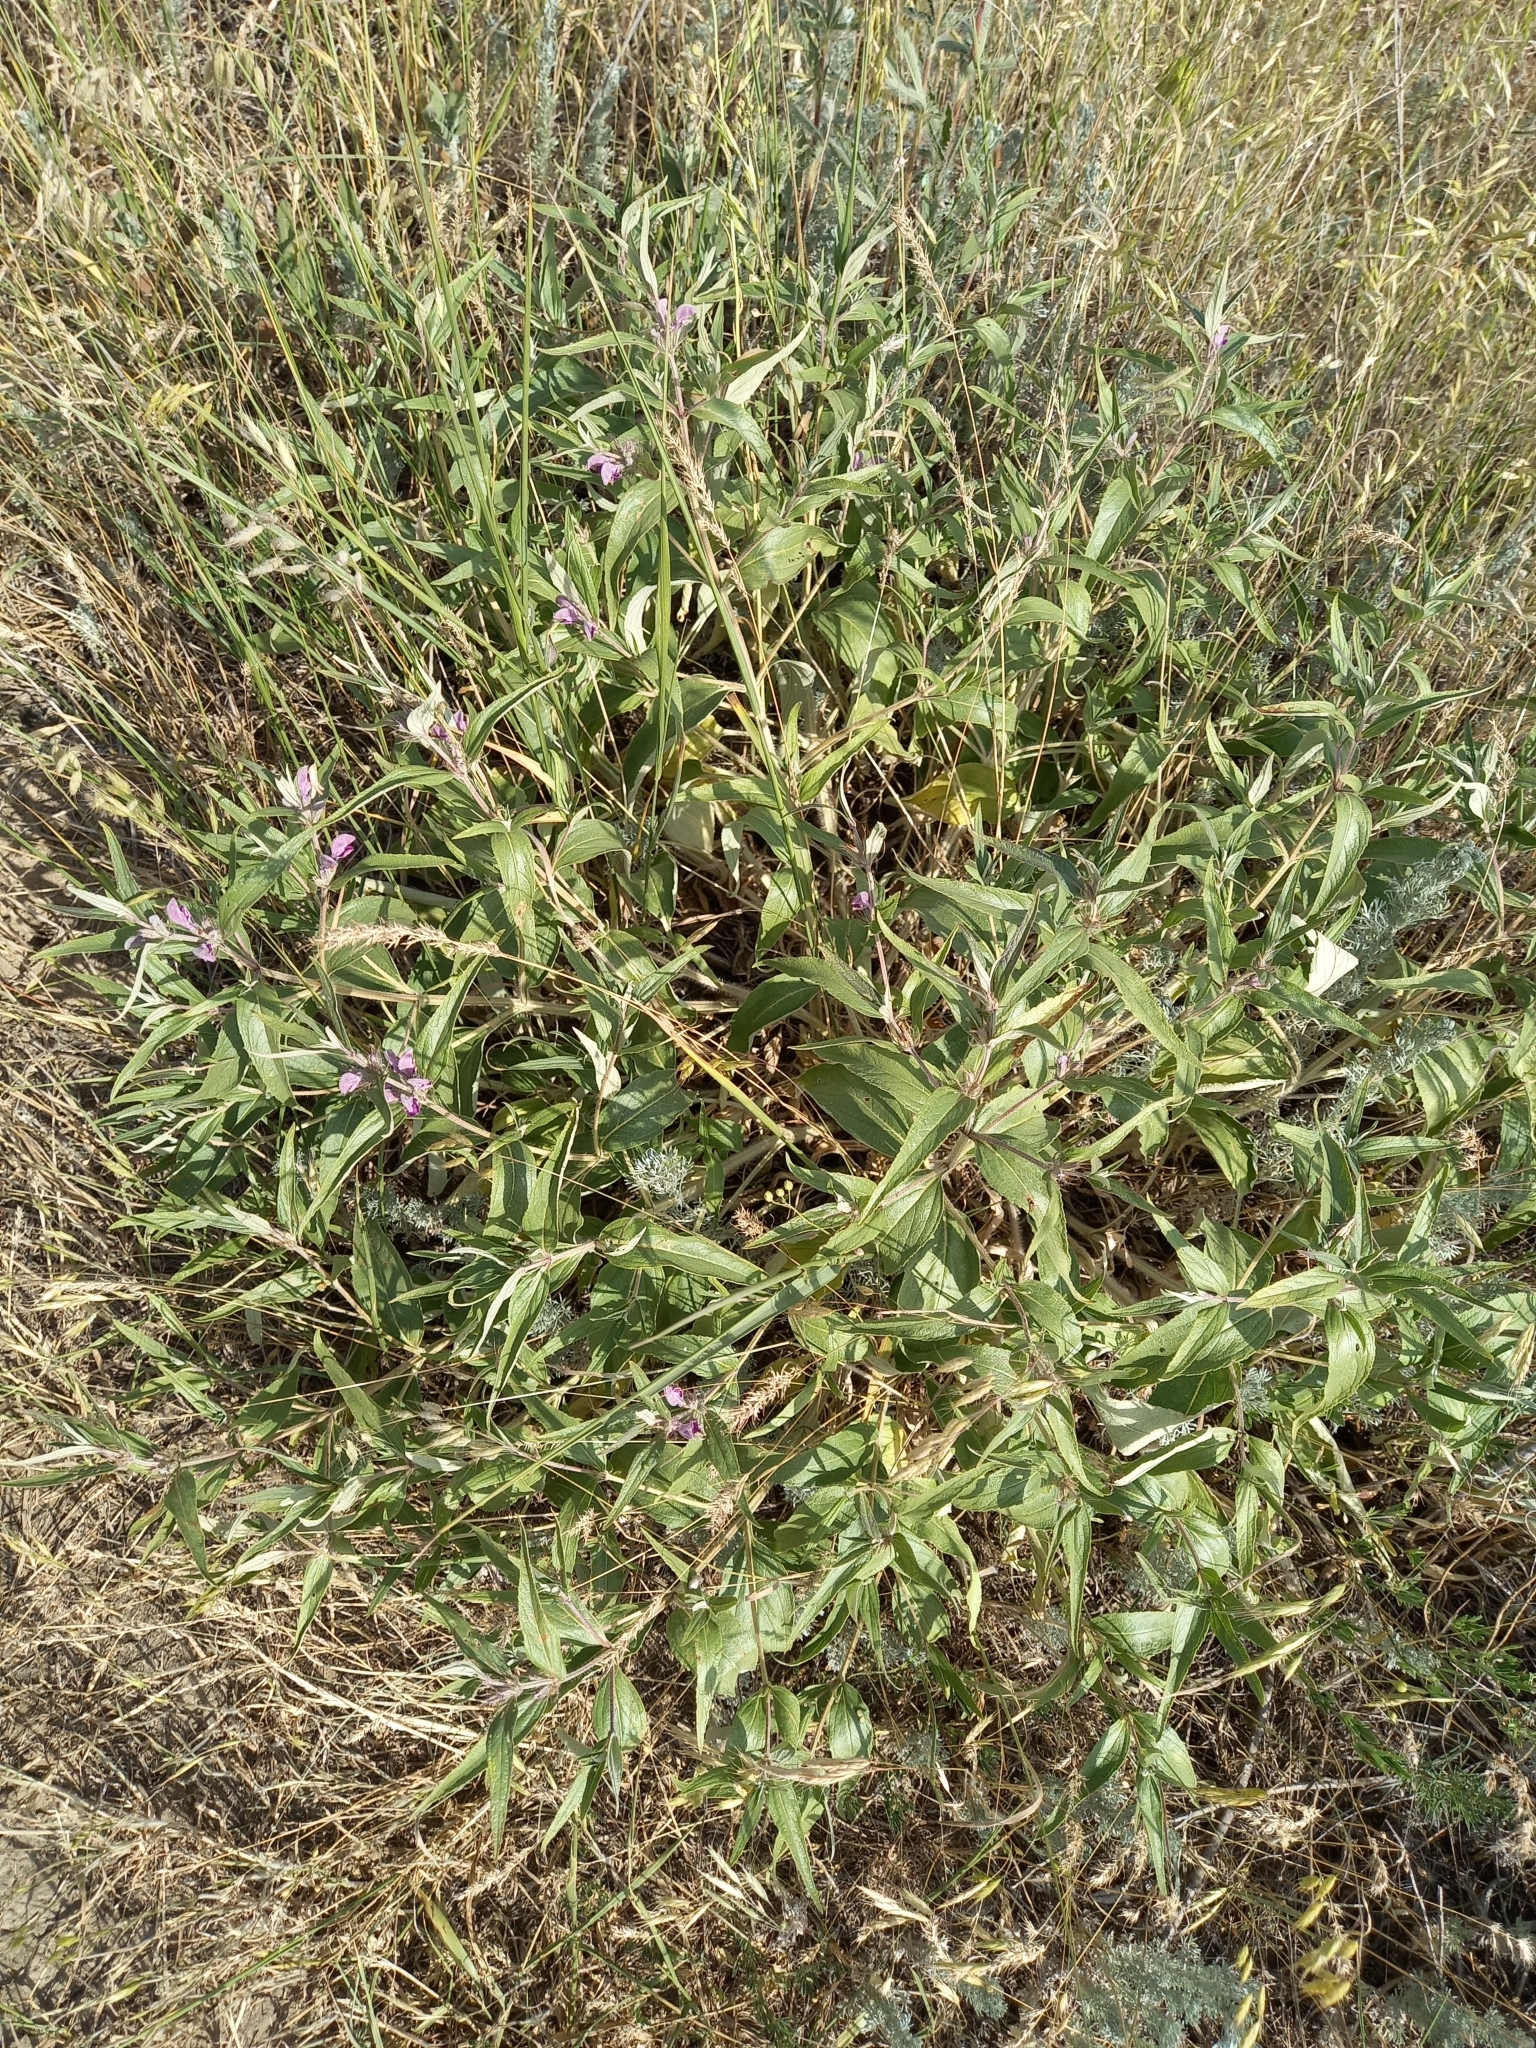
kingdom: Plantae
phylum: Tracheophyta
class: Magnoliopsida
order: Lamiales
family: Lamiaceae
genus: Phlomis
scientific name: Phlomis herba-venti
